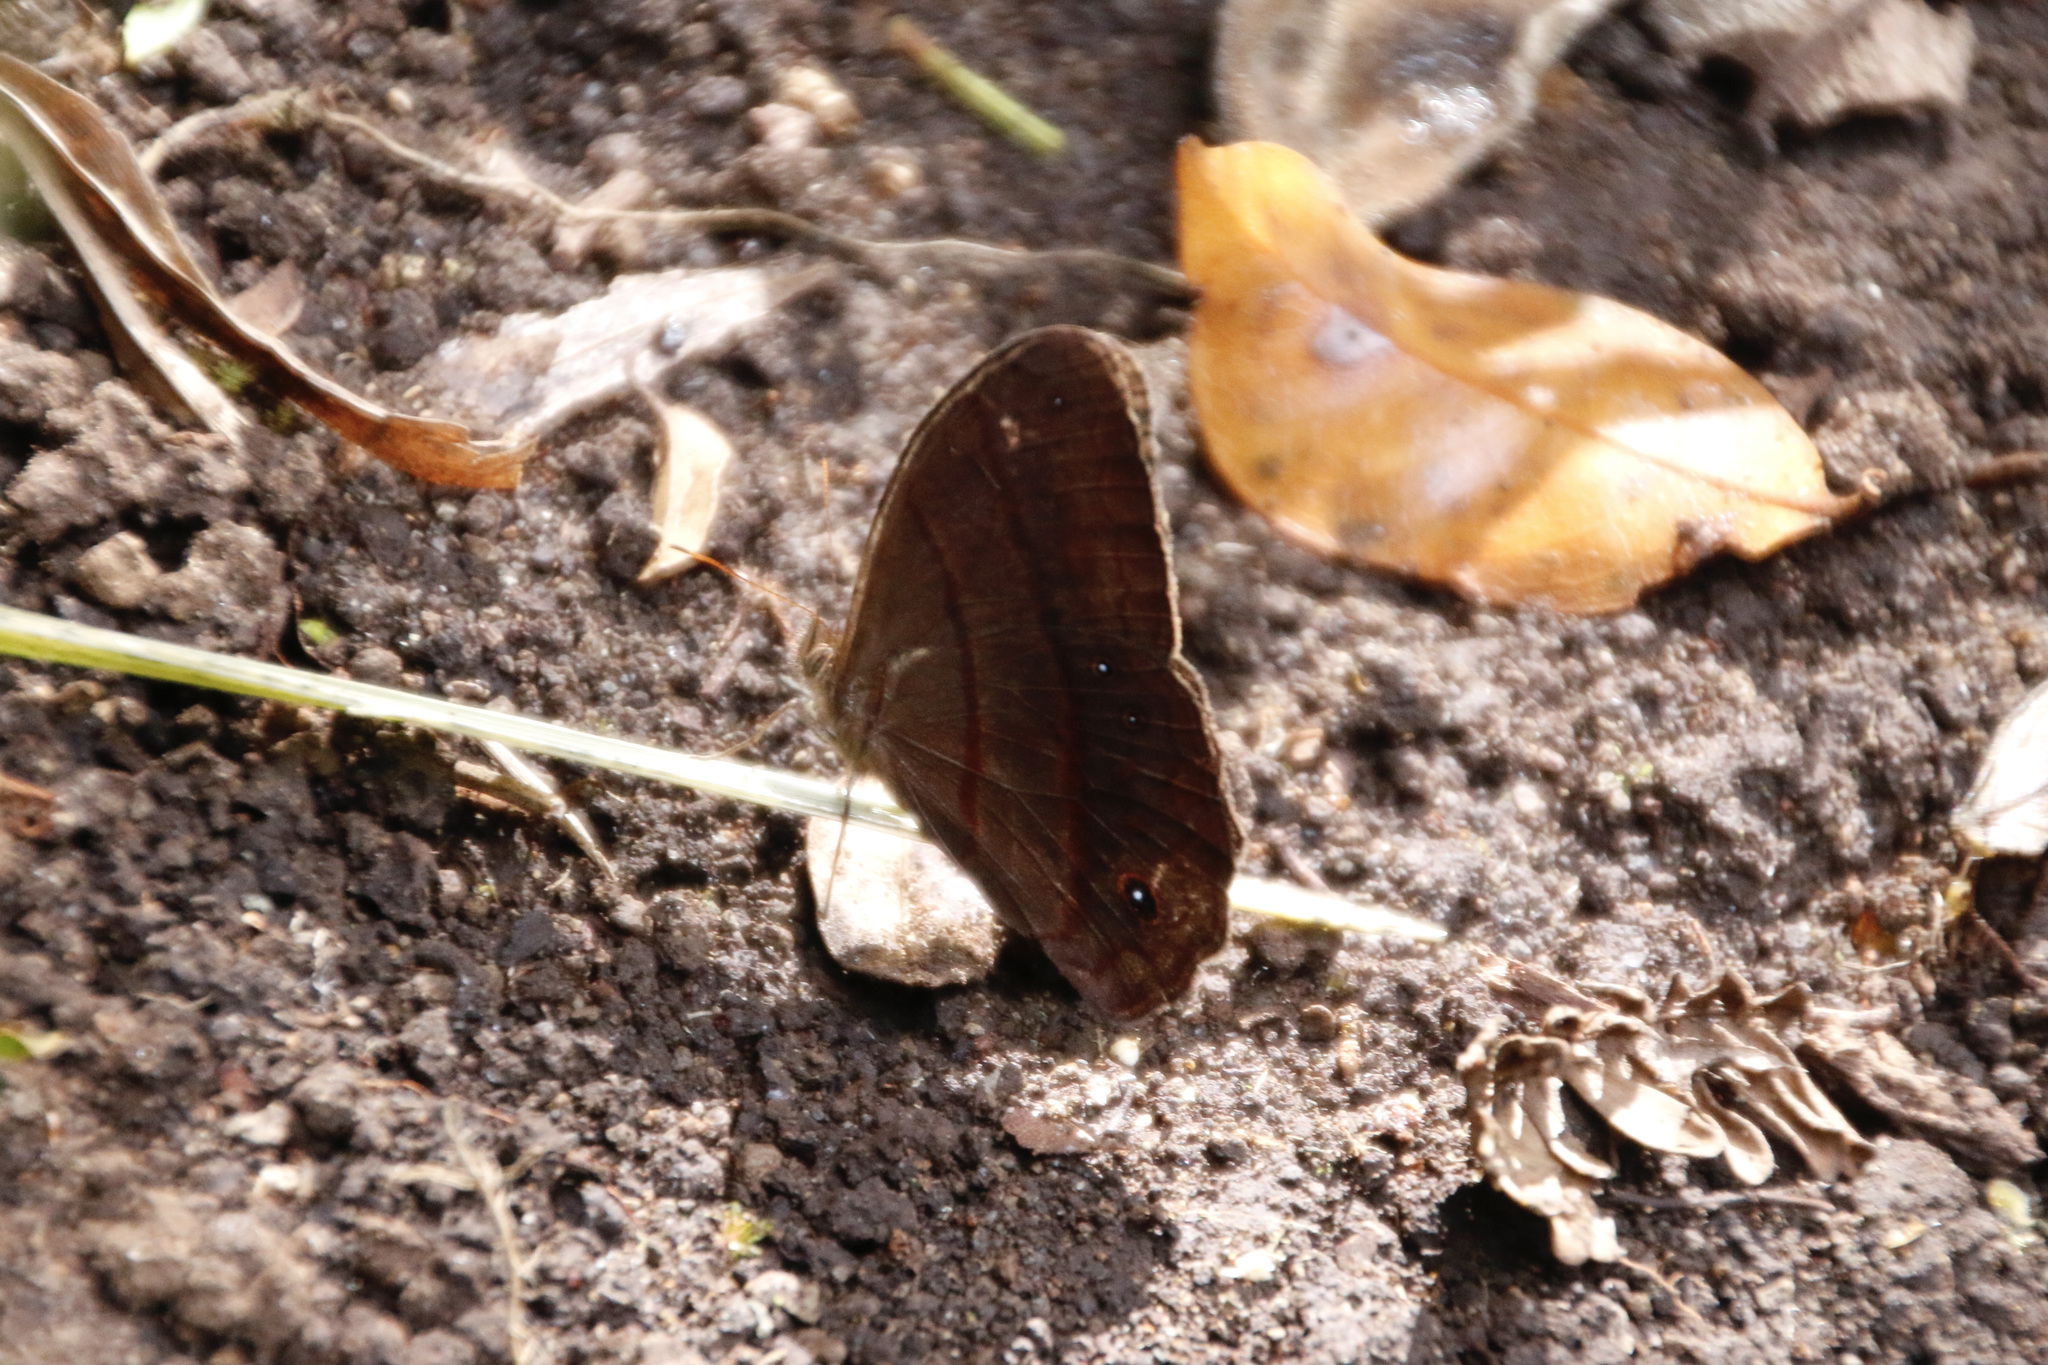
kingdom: Animalia
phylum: Arthropoda
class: Insecta
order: Lepidoptera
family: Nymphalidae
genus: Satyrotaygetis
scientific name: Satyrotaygetis satyrina
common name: Wide-bordered satyr
